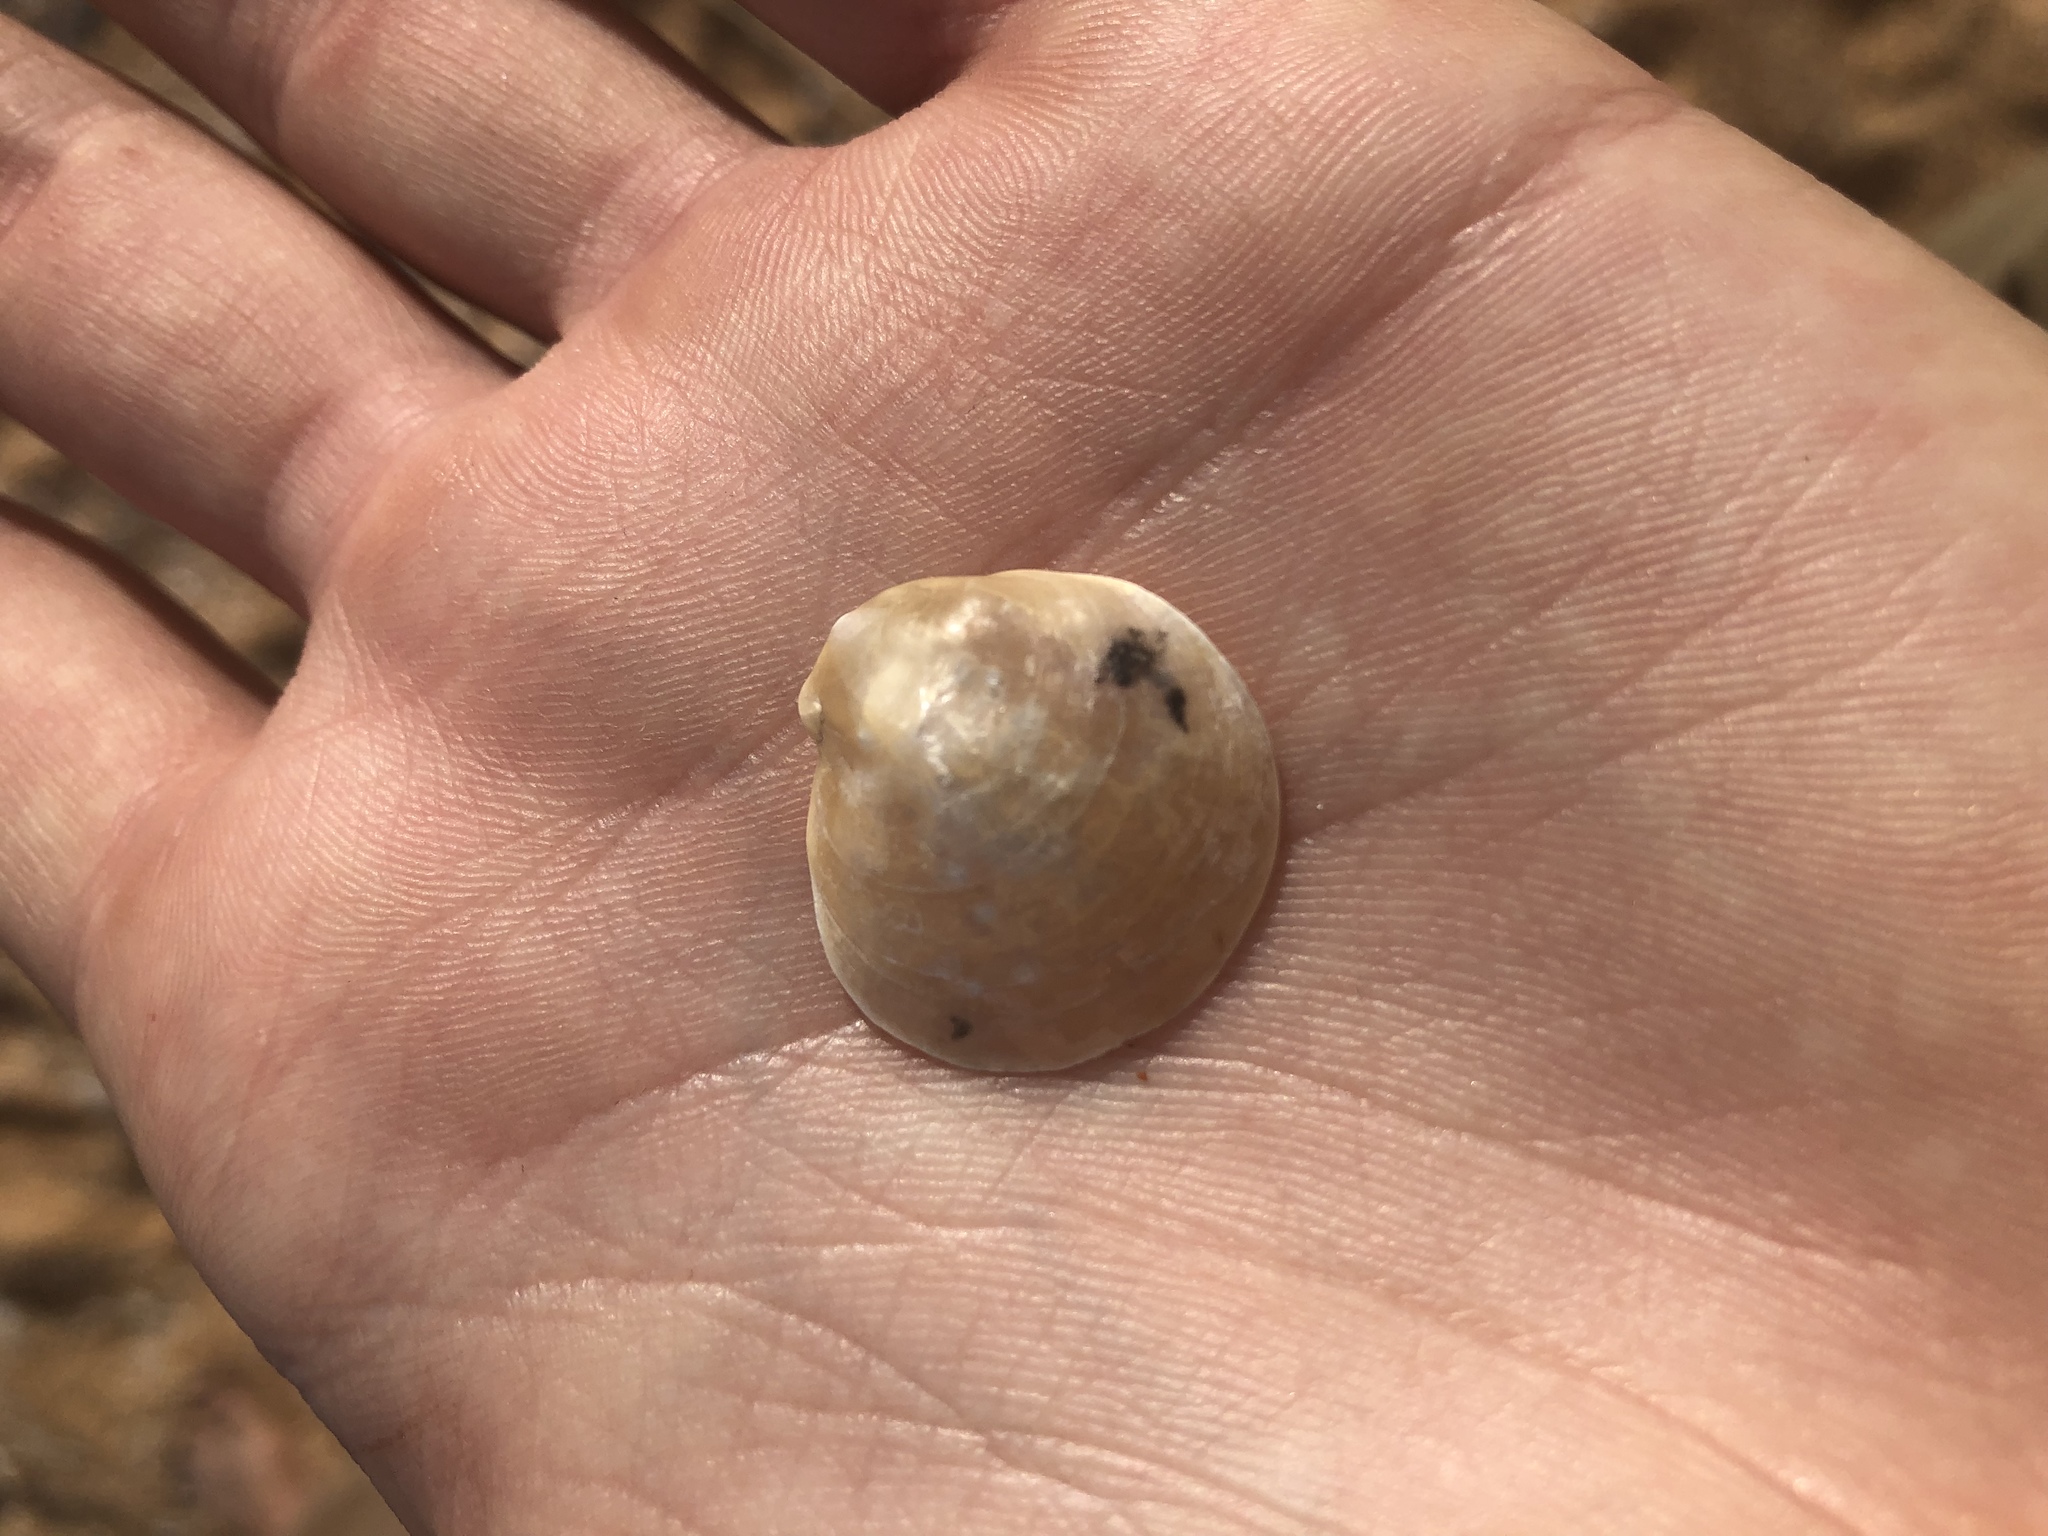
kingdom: Animalia
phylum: Mollusca
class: Bivalvia
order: Pectinida
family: Anomiidae
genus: Anomia
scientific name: Anomia simplex
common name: Common jingle shell
